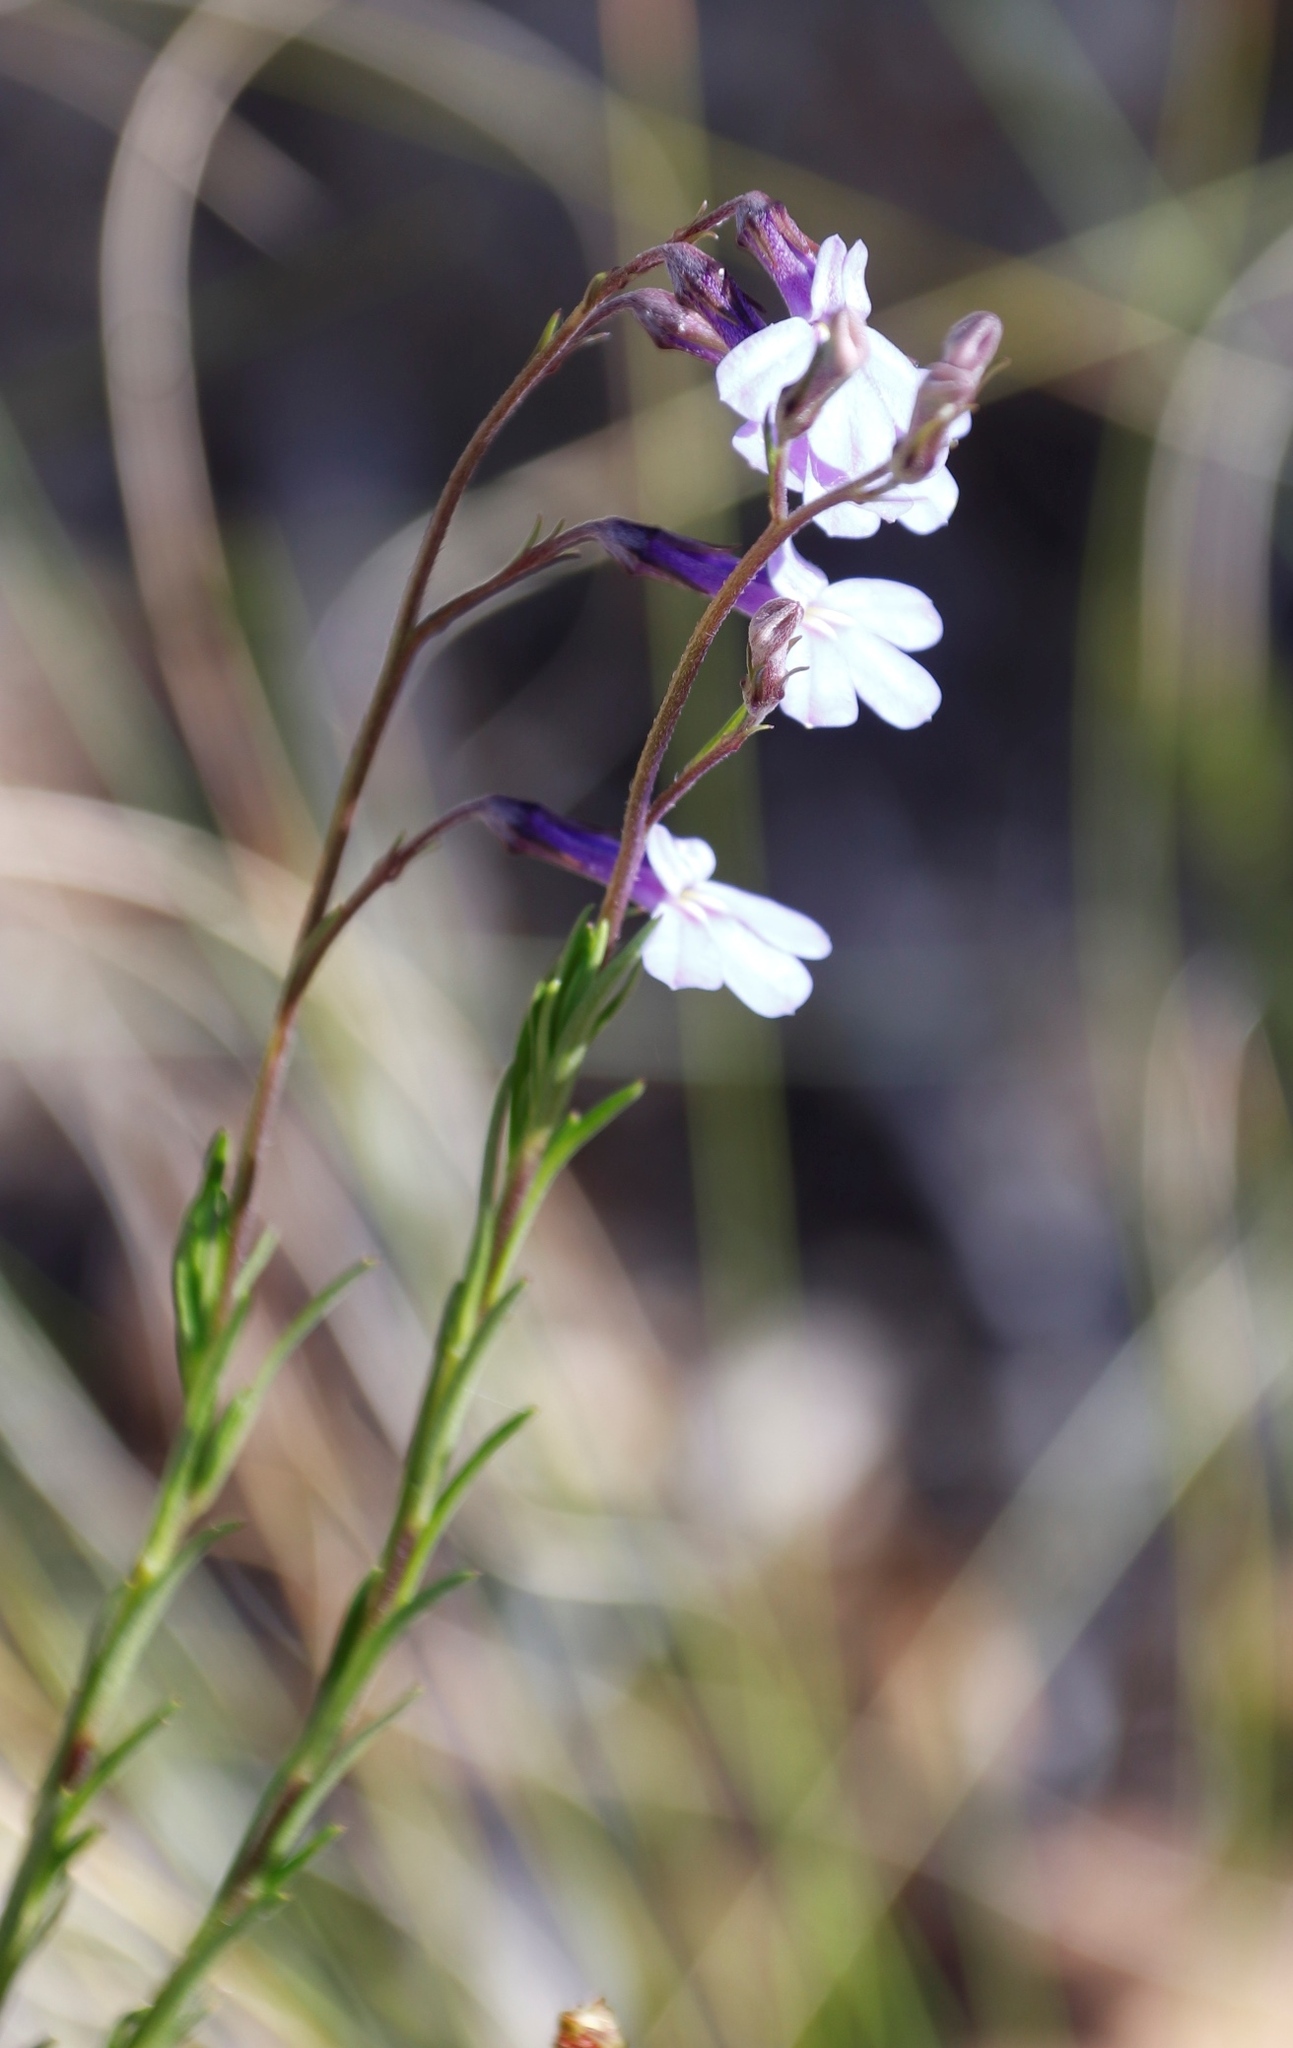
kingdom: Plantae
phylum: Tracheophyta
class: Magnoliopsida
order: Asterales
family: Campanulaceae
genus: Lobelia
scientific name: Lobelia pinifolia
